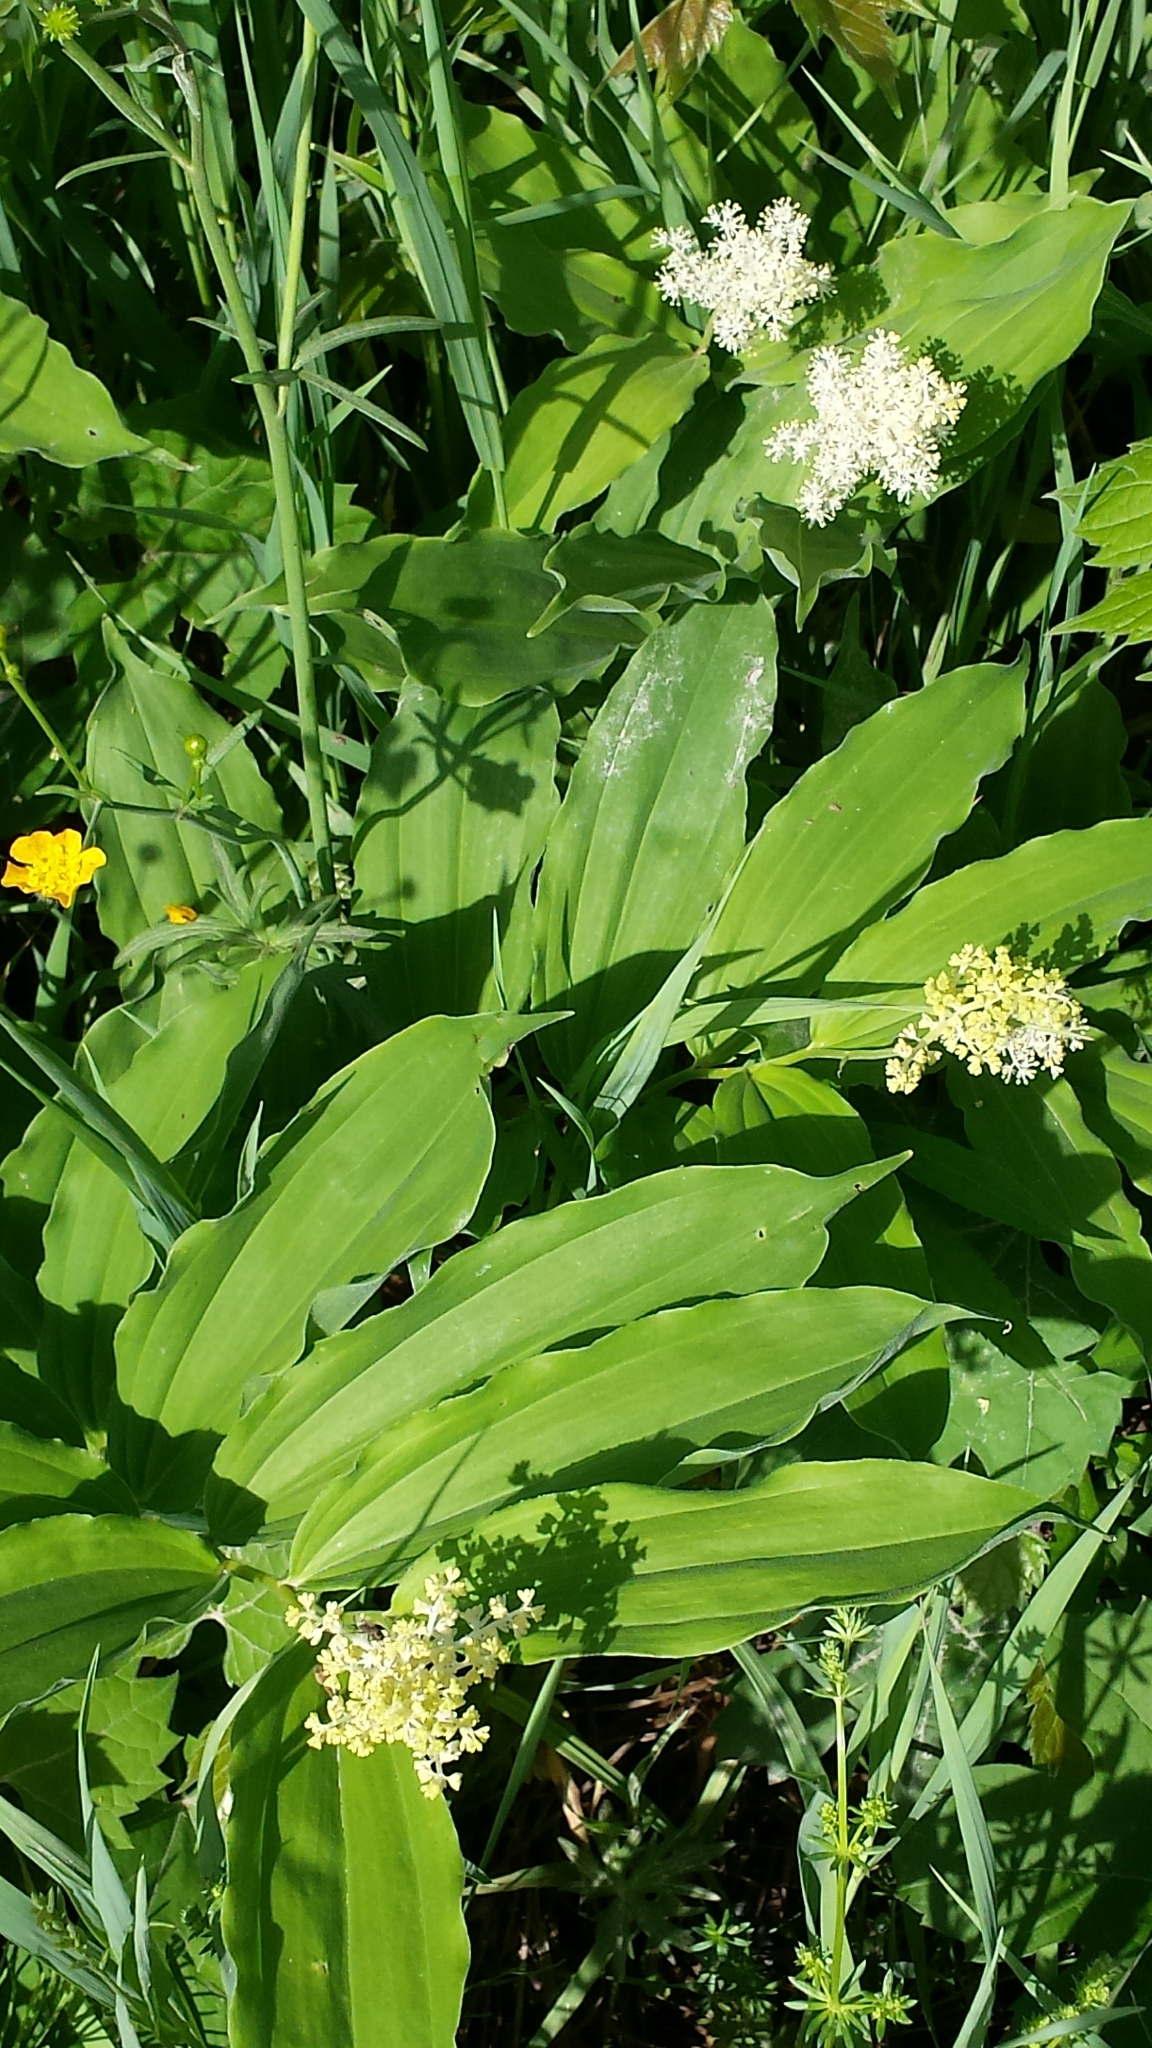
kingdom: Plantae
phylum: Tracheophyta
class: Liliopsida
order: Asparagales
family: Asparagaceae
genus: Maianthemum
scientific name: Maianthemum racemosum
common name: False spikenard
